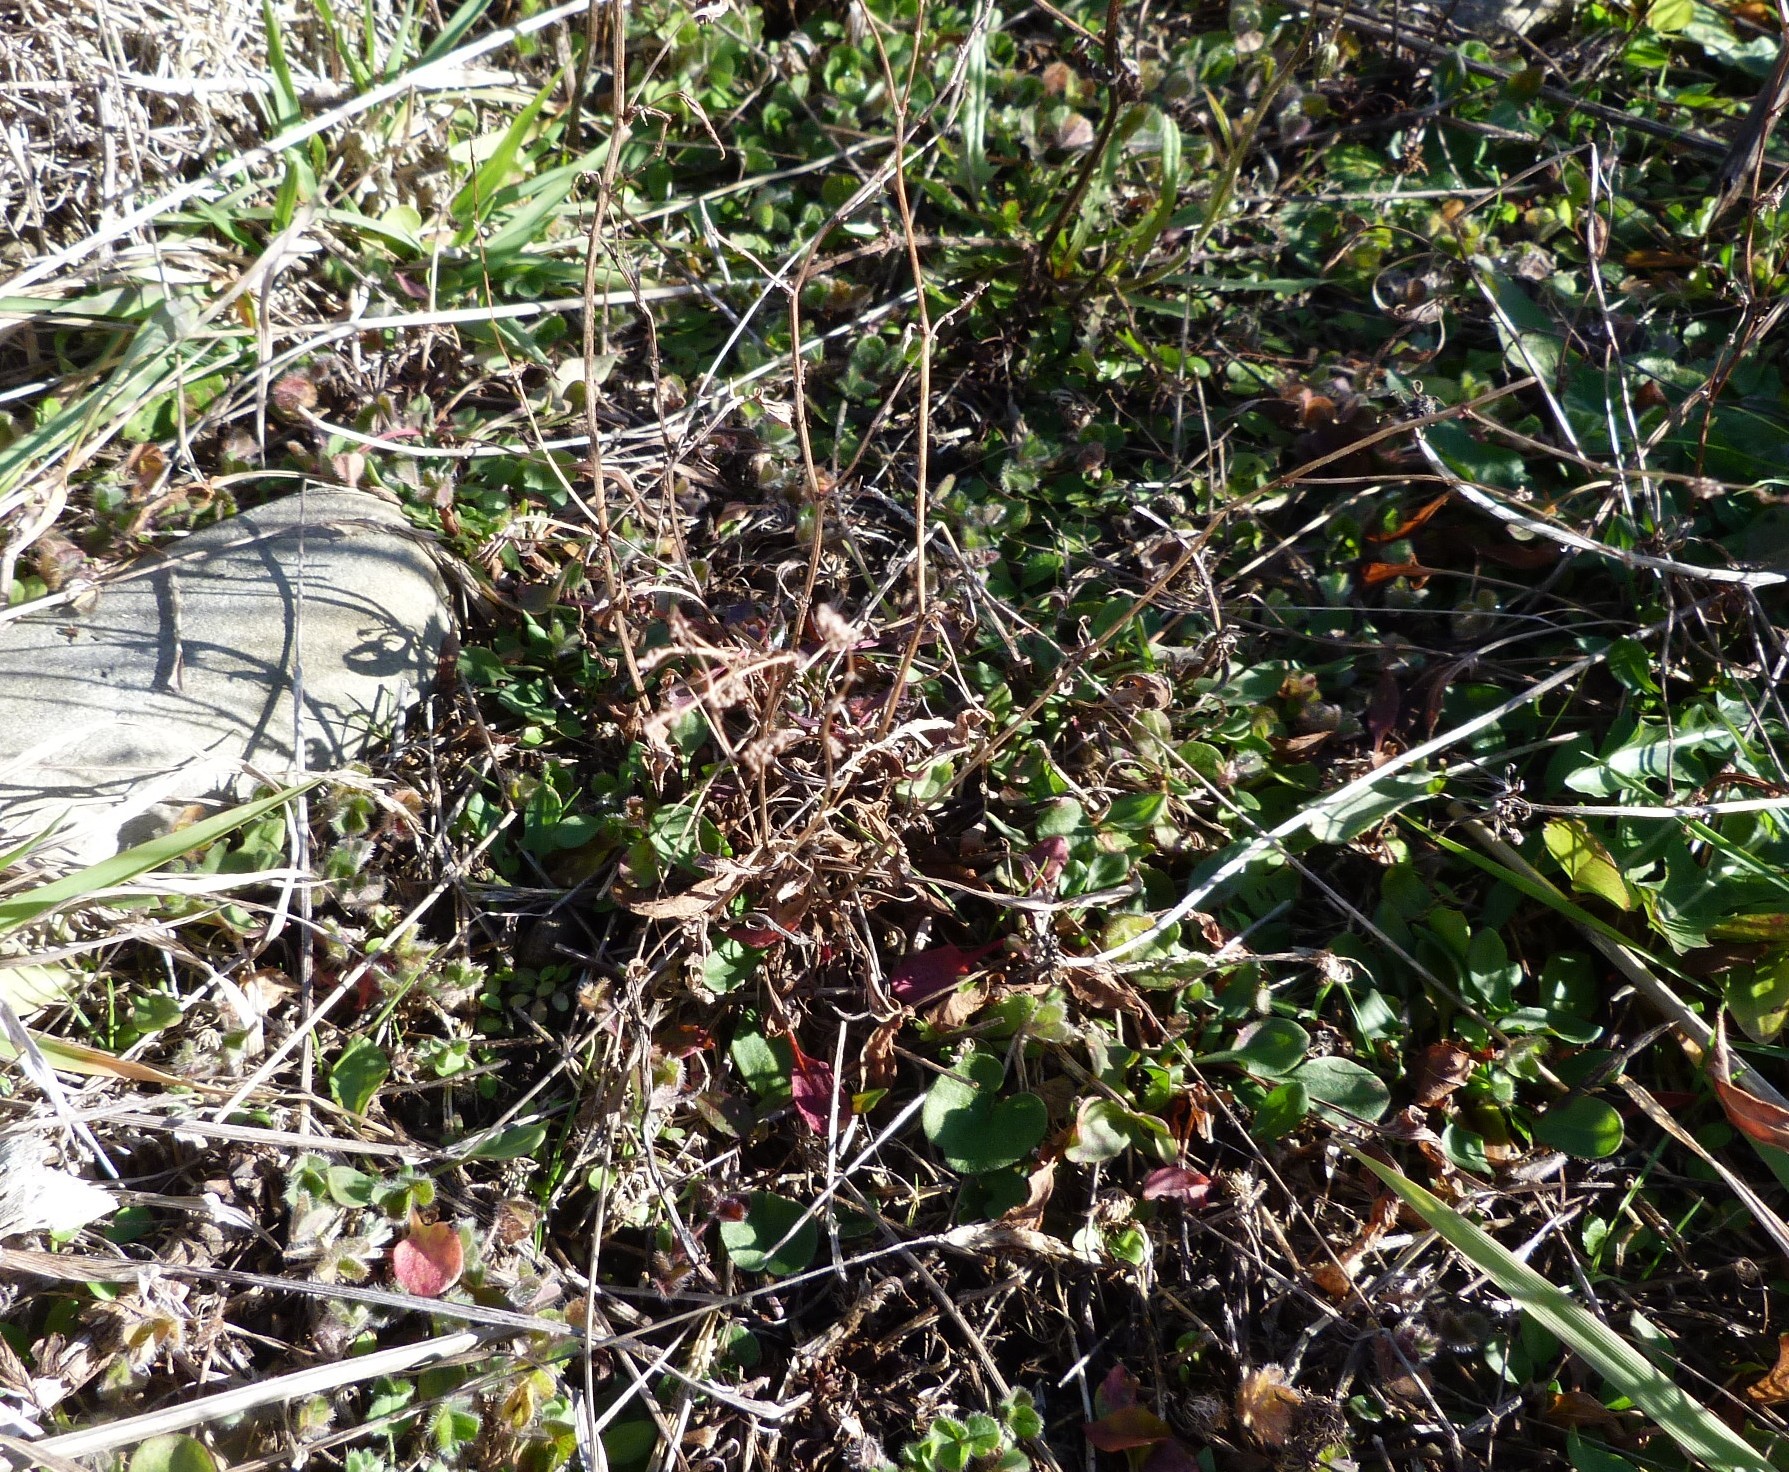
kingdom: Plantae
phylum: Tracheophyta
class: Magnoliopsida
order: Caryophyllales
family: Polygonaceae
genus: Rumex
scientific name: Rumex acetosella
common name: Common sheep sorrel
